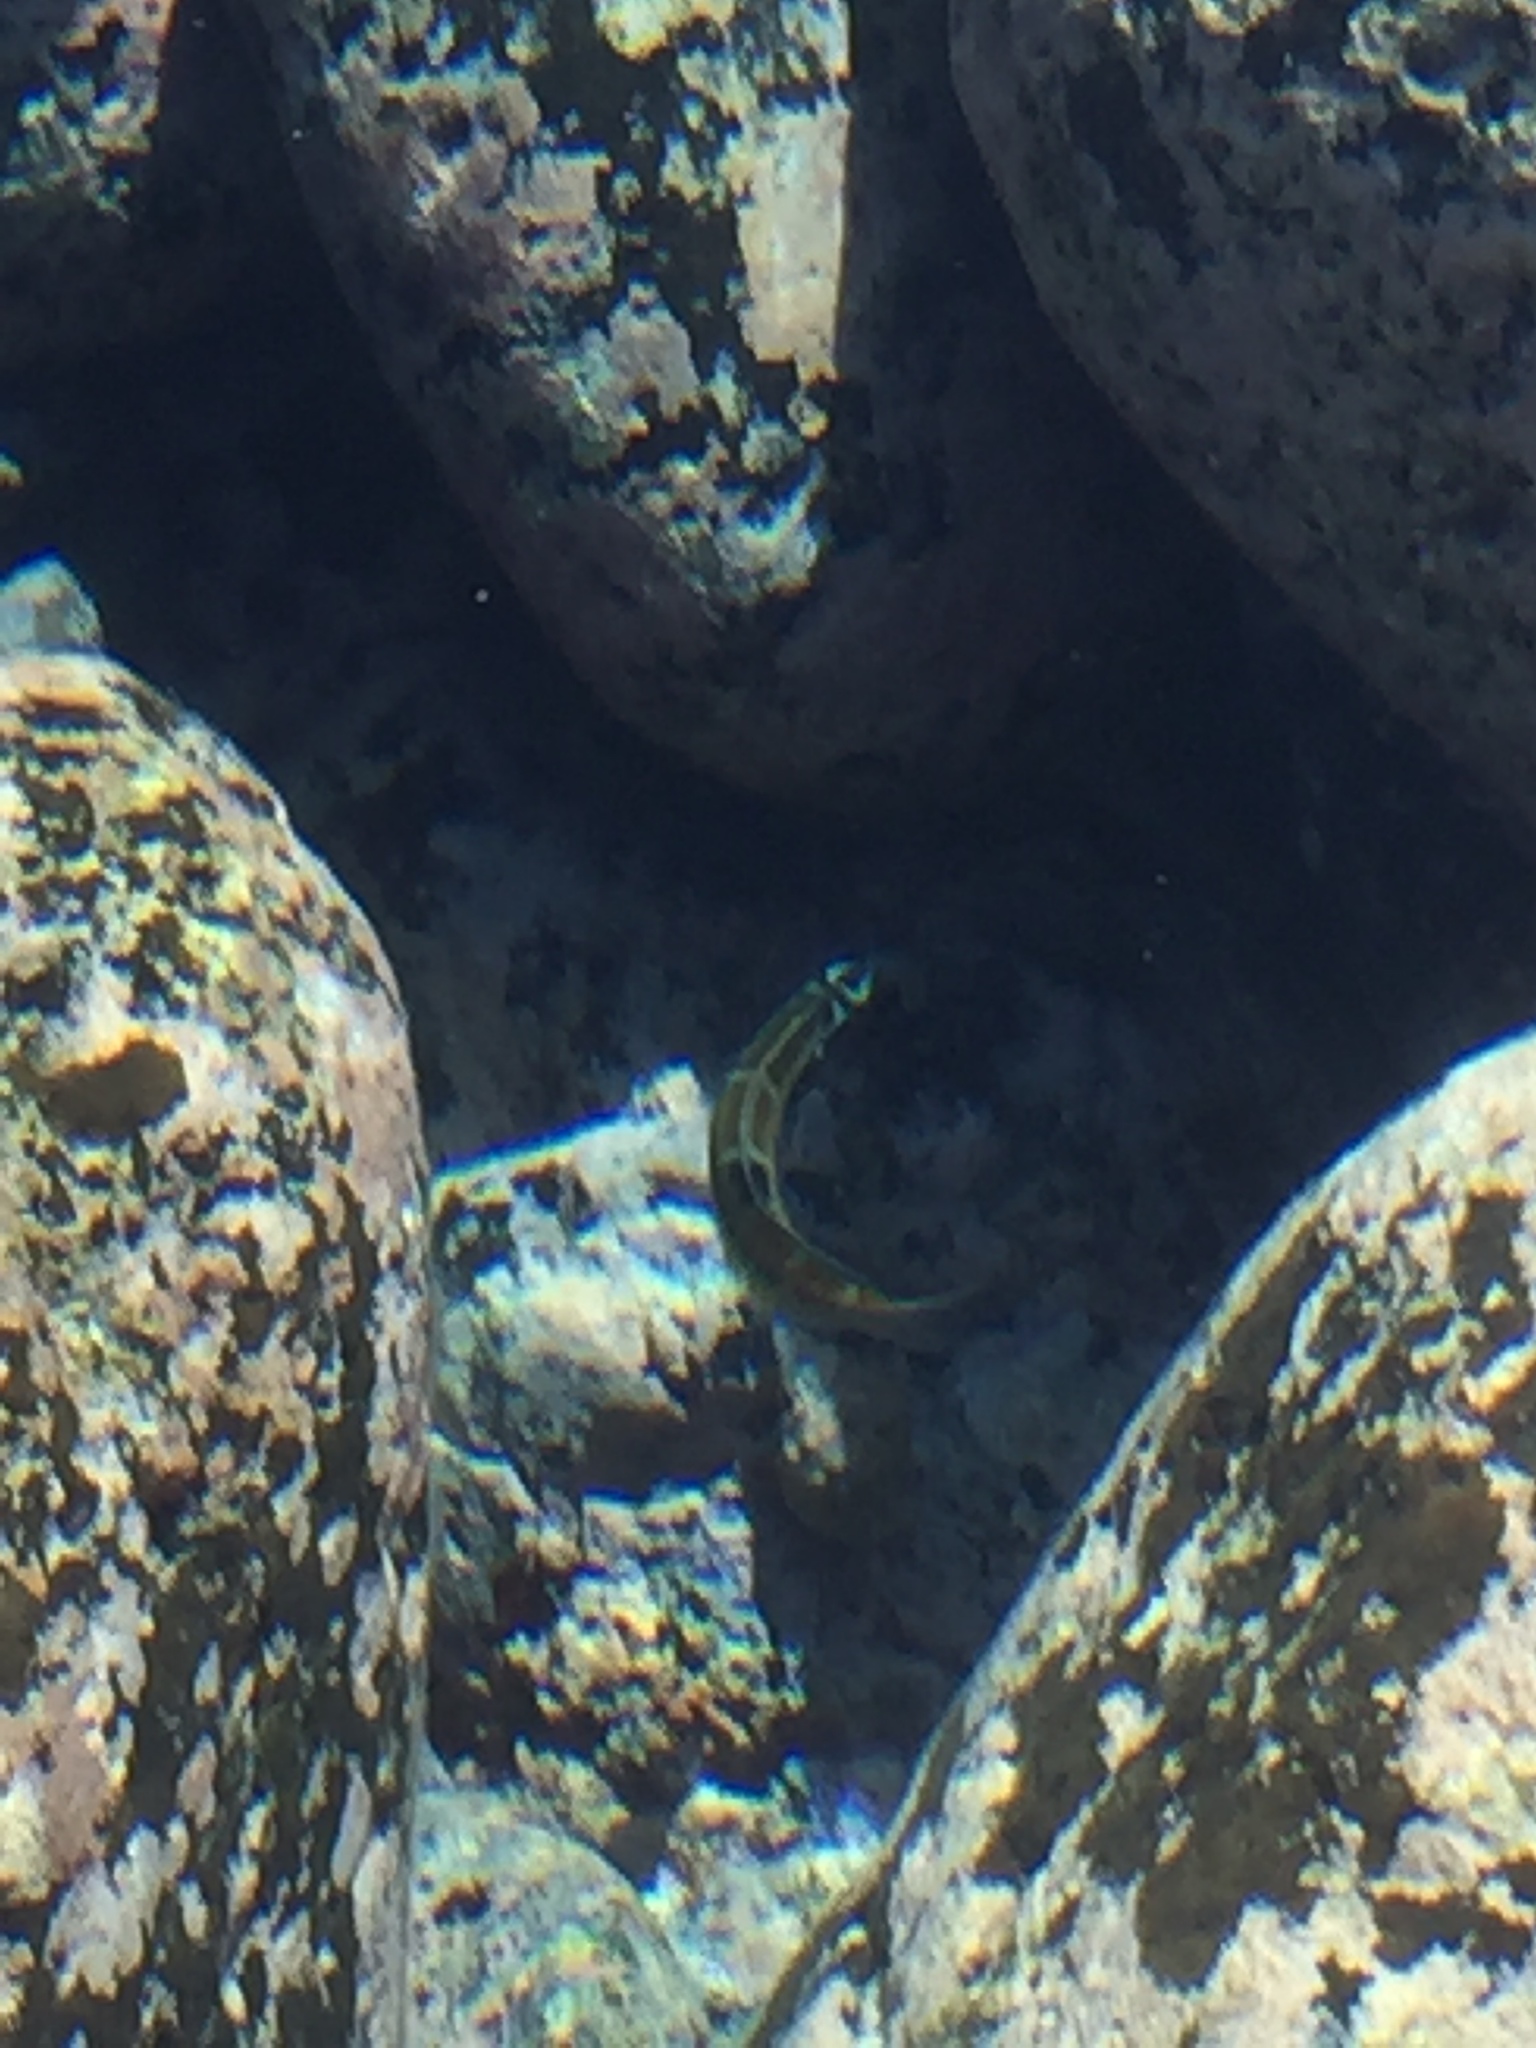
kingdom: Animalia
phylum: Chordata
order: Perciformes
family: Labridae
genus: Thalassoma
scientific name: Thalassoma pavo
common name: Ornate wrasse
